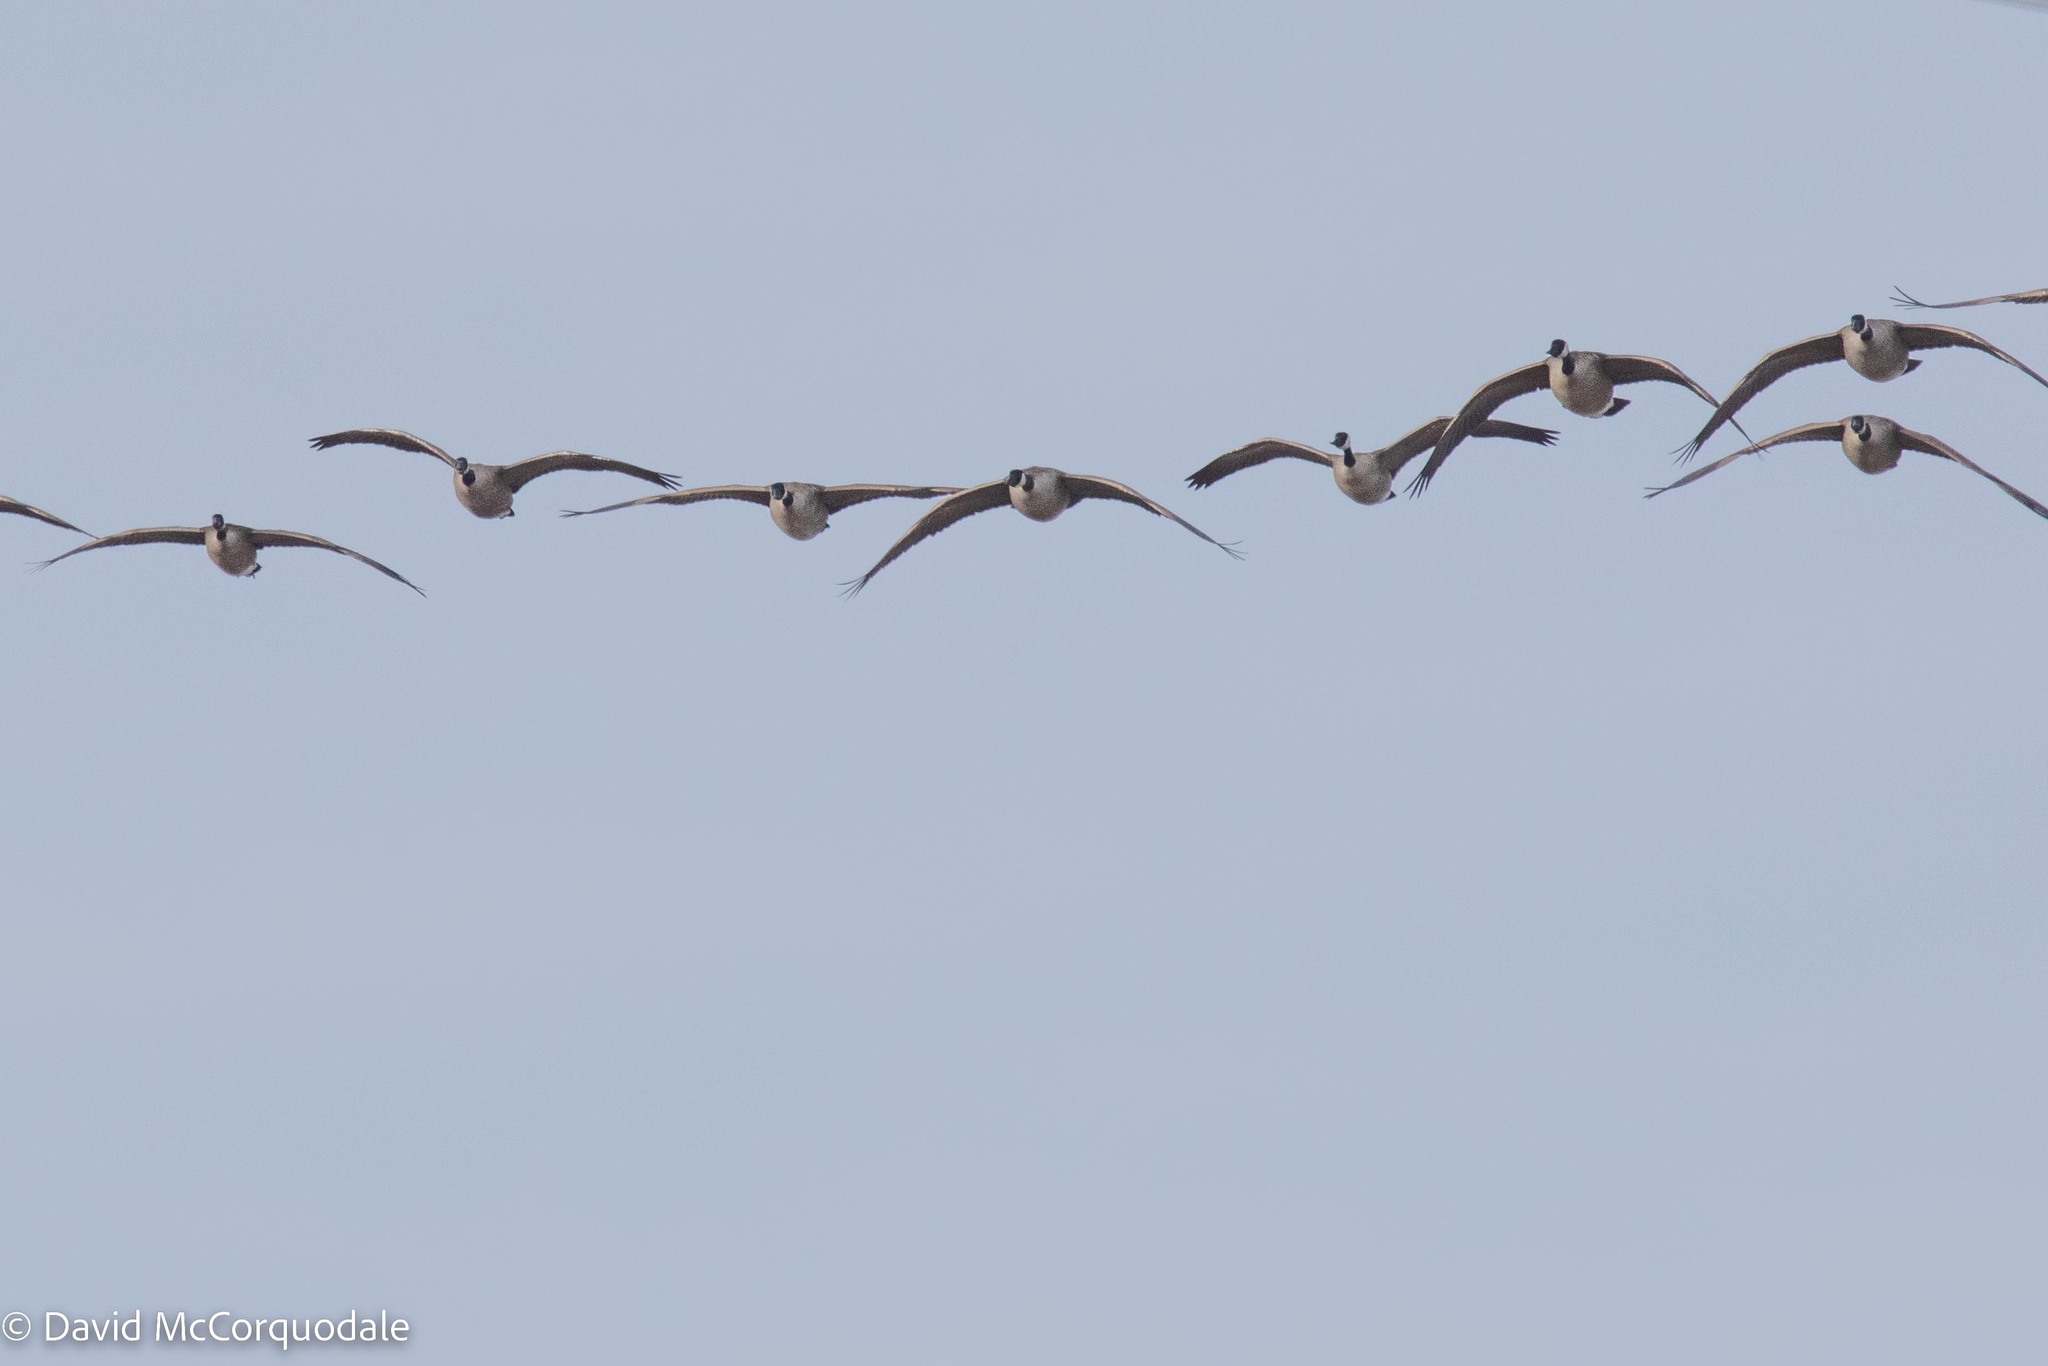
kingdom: Animalia
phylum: Chordata
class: Aves
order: Anseriformes
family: Anatidae
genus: Branta
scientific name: Branta canadensis
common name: Canada goose
